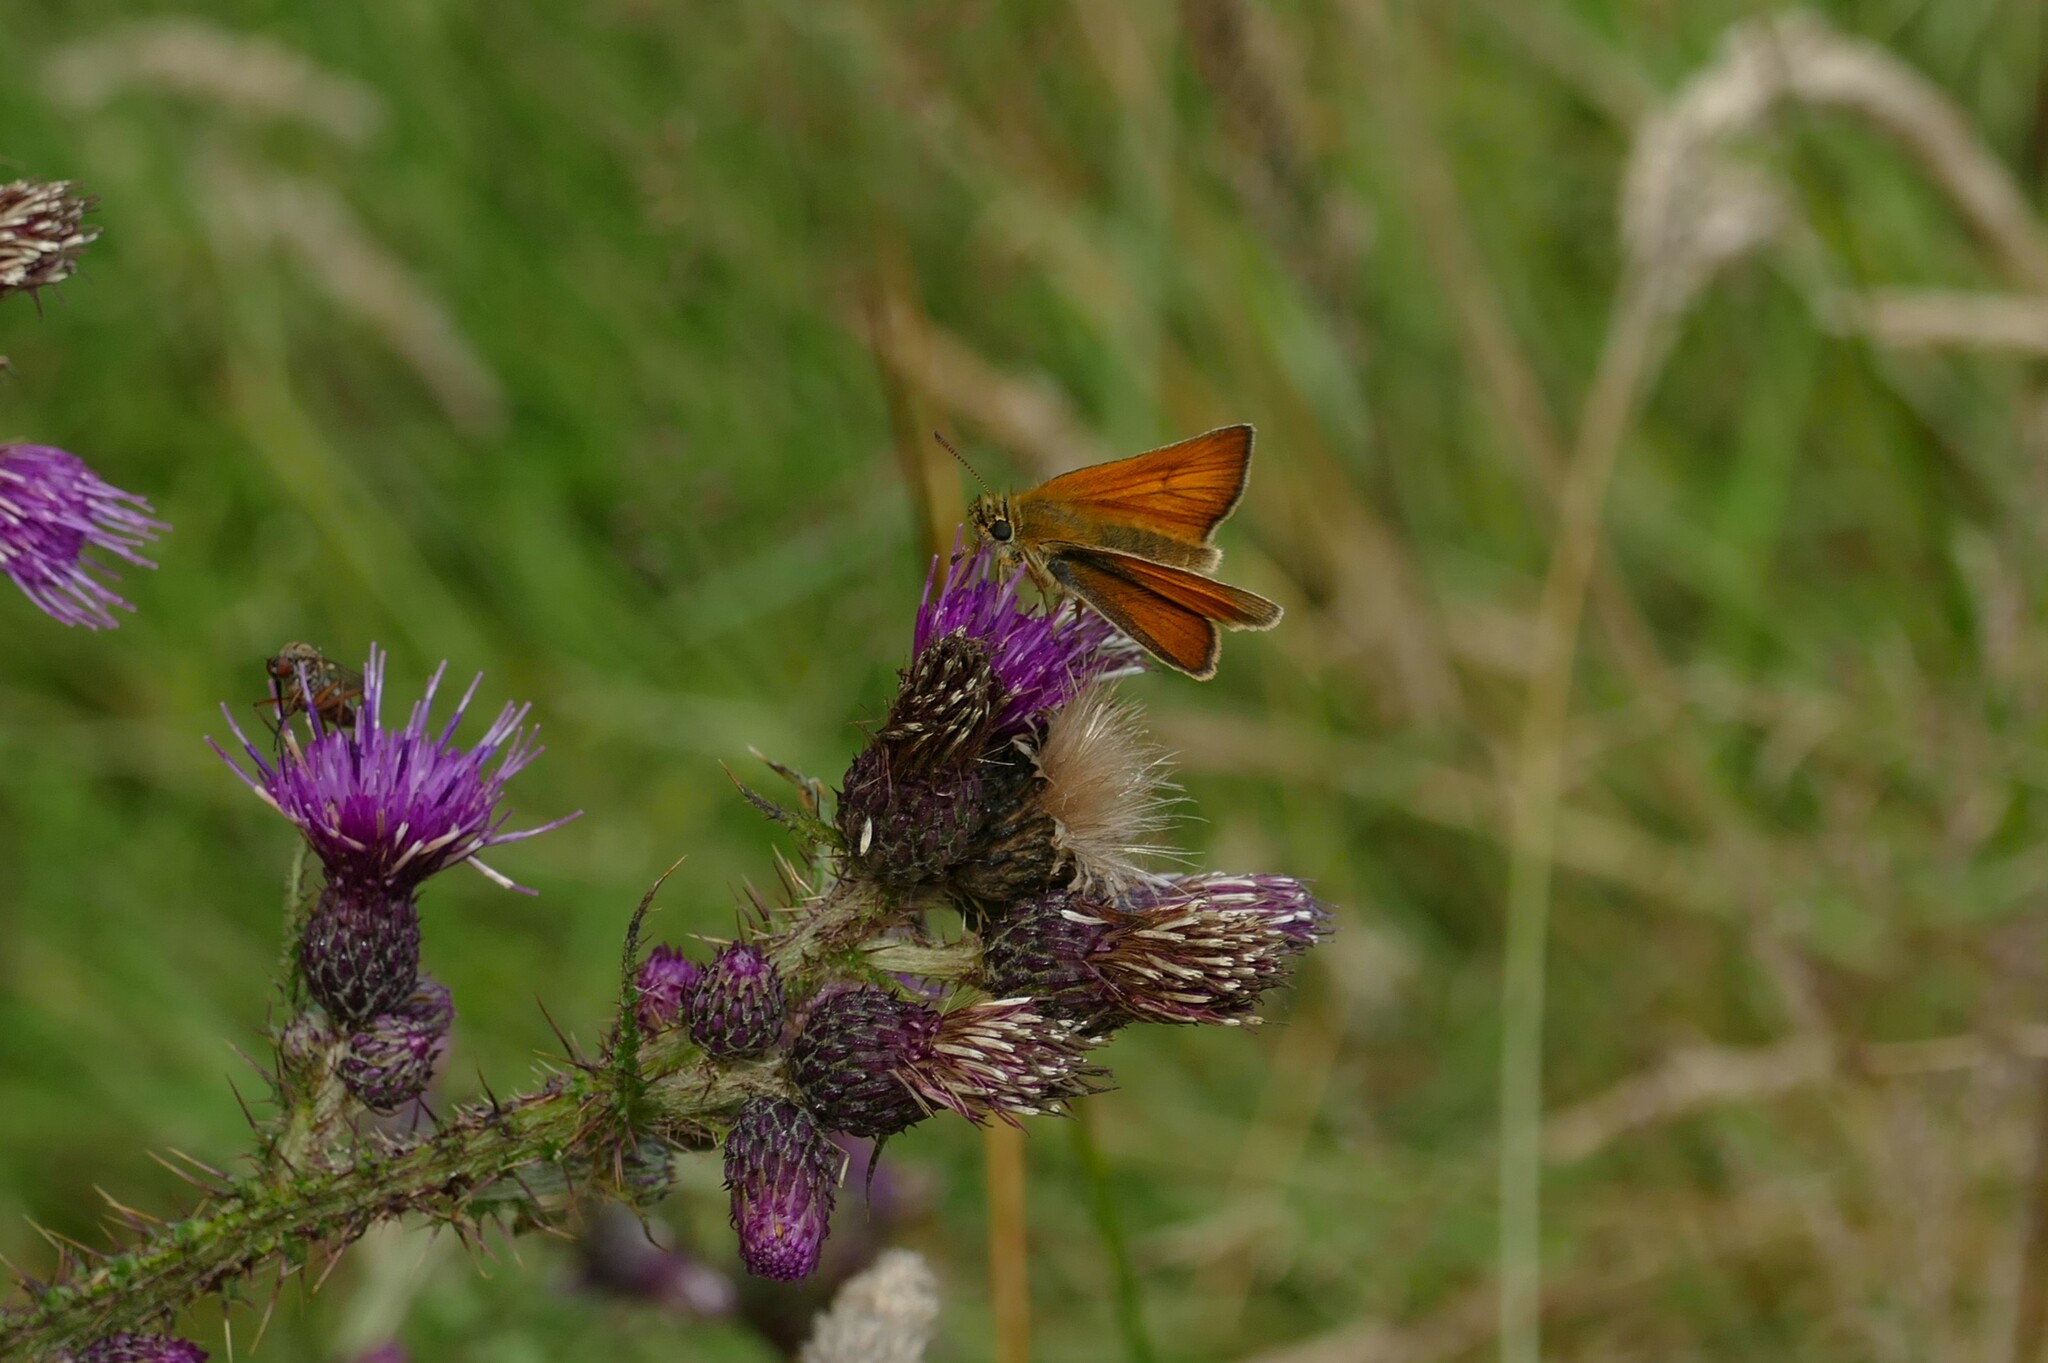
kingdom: Animalia
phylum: Arthropoda
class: Insecta
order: Lepidoptera
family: Hesperiidae
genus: Thymelicus
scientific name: Thymelicus sylvestris
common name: Small skipper
